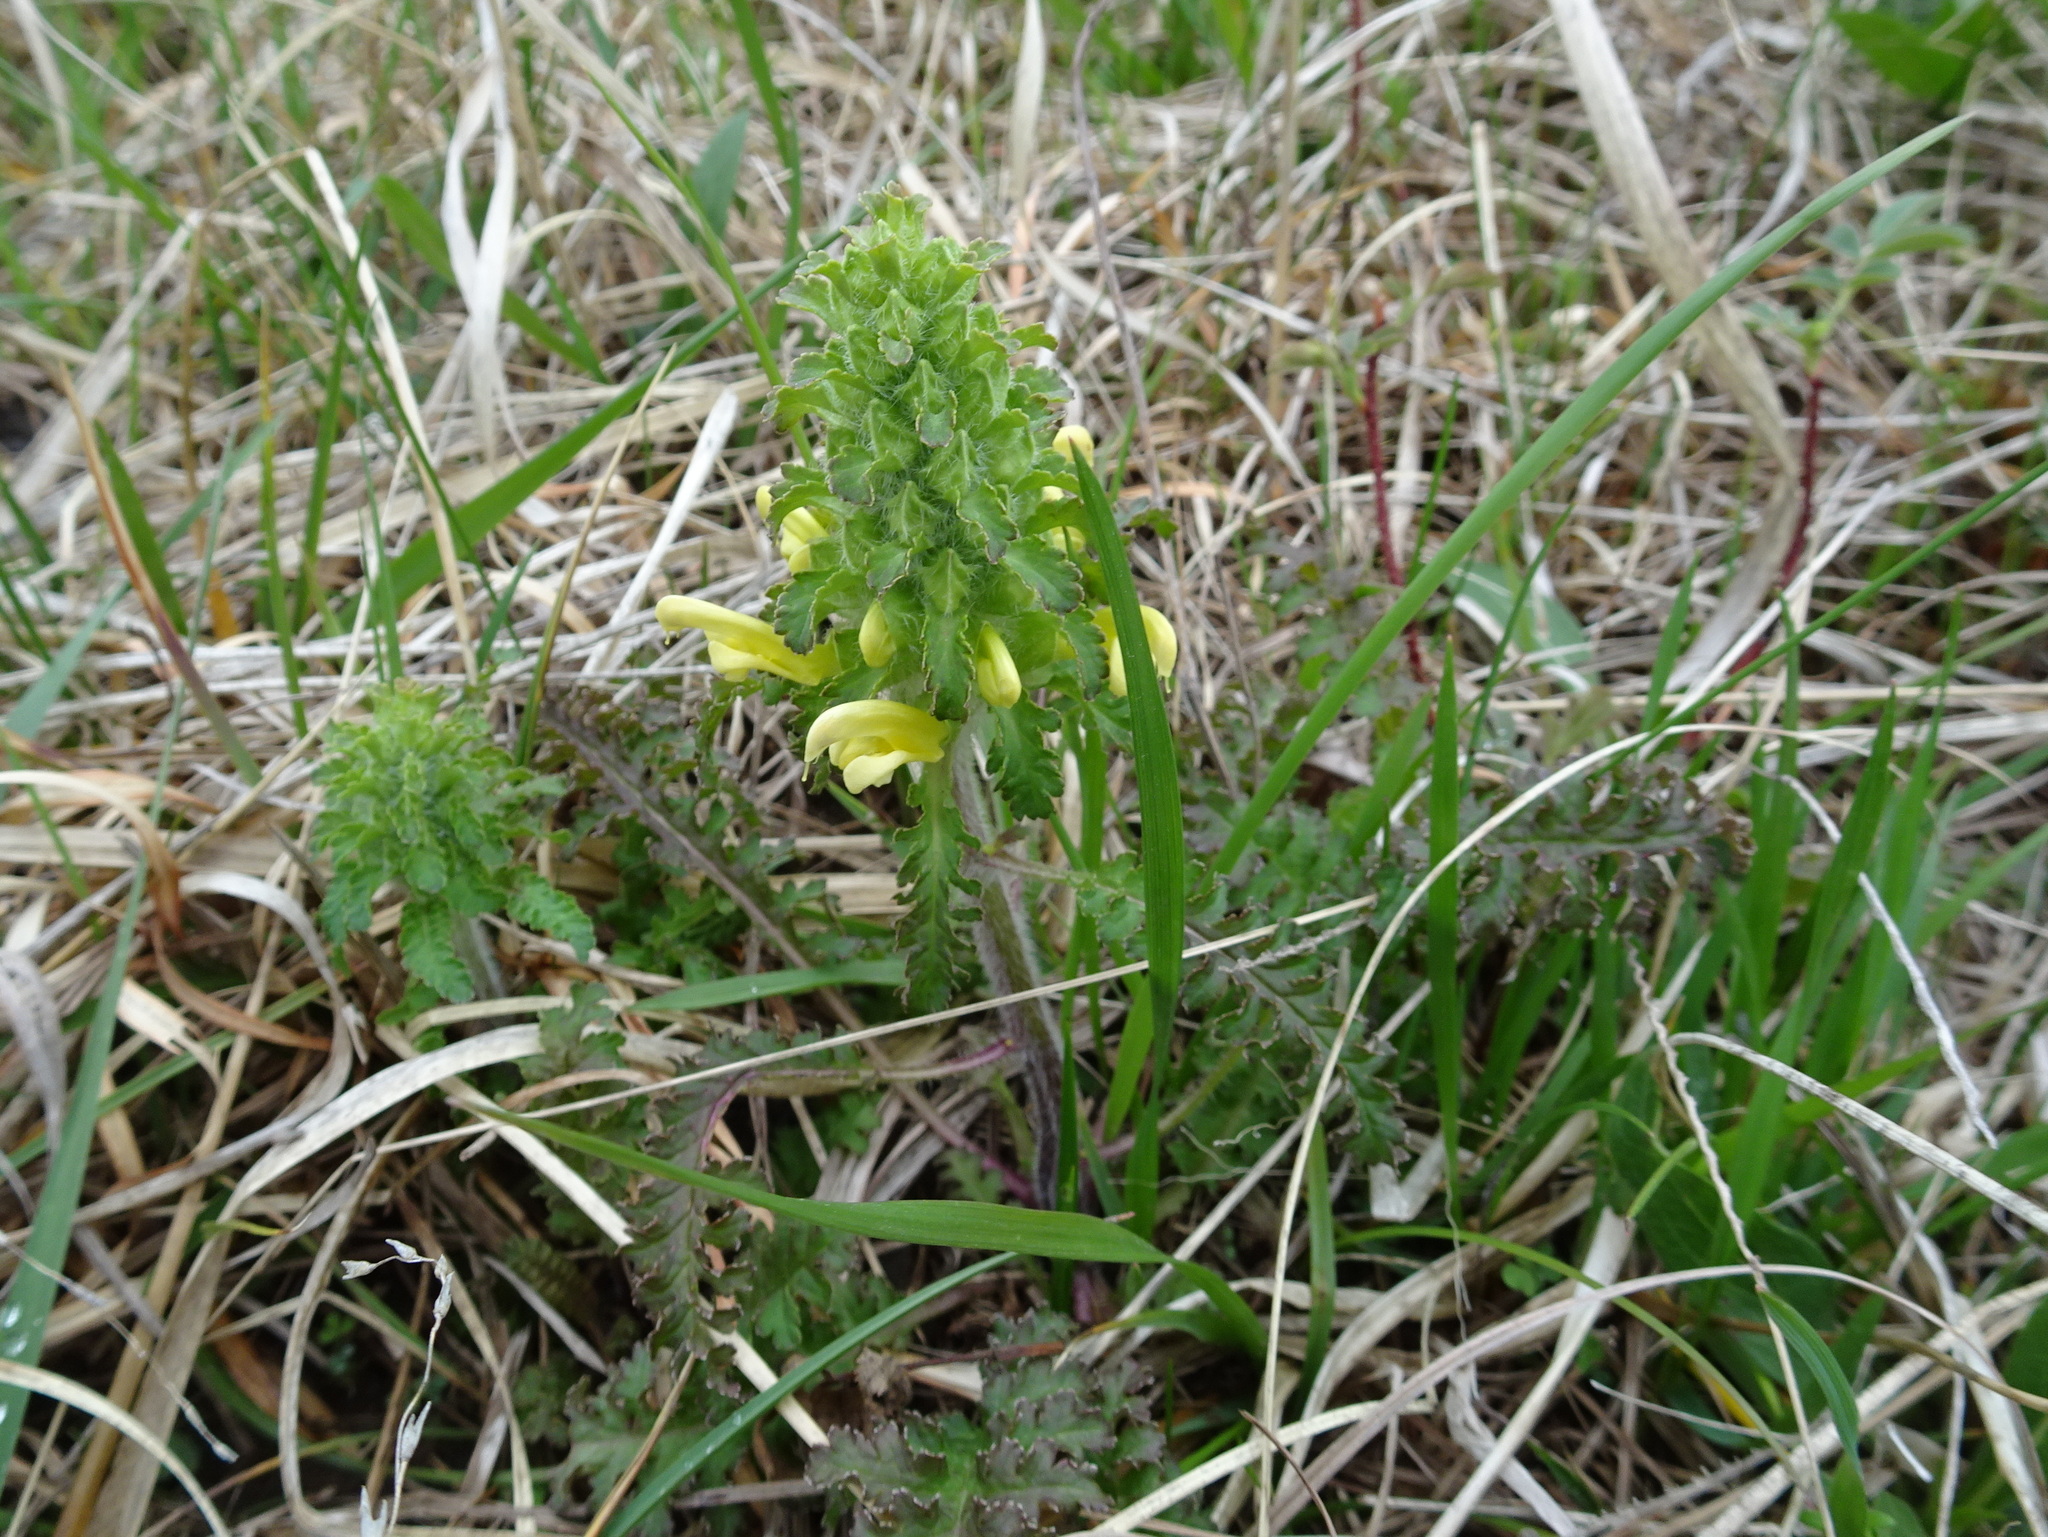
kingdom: Plantae
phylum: Tracheophyta
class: Magnoliopsida
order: Lamiales
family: Orobanchaceae
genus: Pedicularis
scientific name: Pedicularis canadensis
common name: Early lousewort
